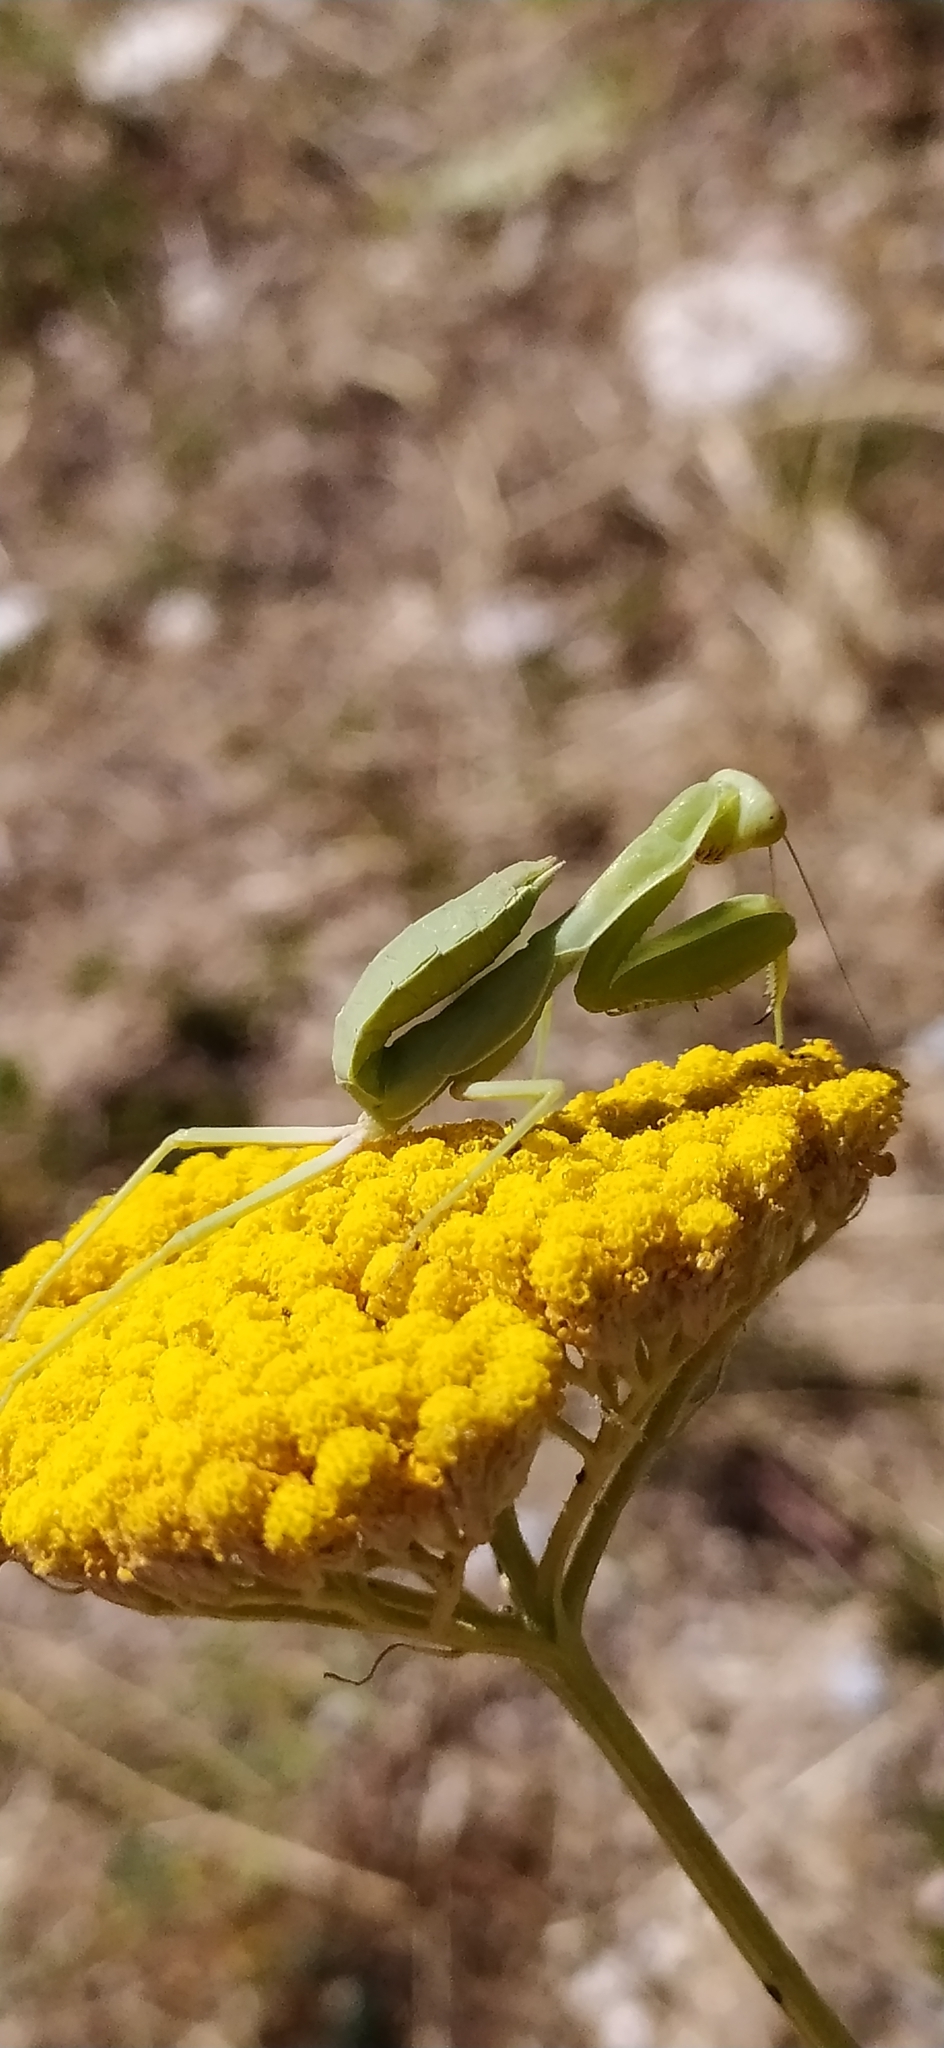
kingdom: Animalia
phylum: Arthropoda
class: Insecta
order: Mantodea
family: Mantidae
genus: Hierodula
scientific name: Hierodula tenuidentata
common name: Giant asian mantis
